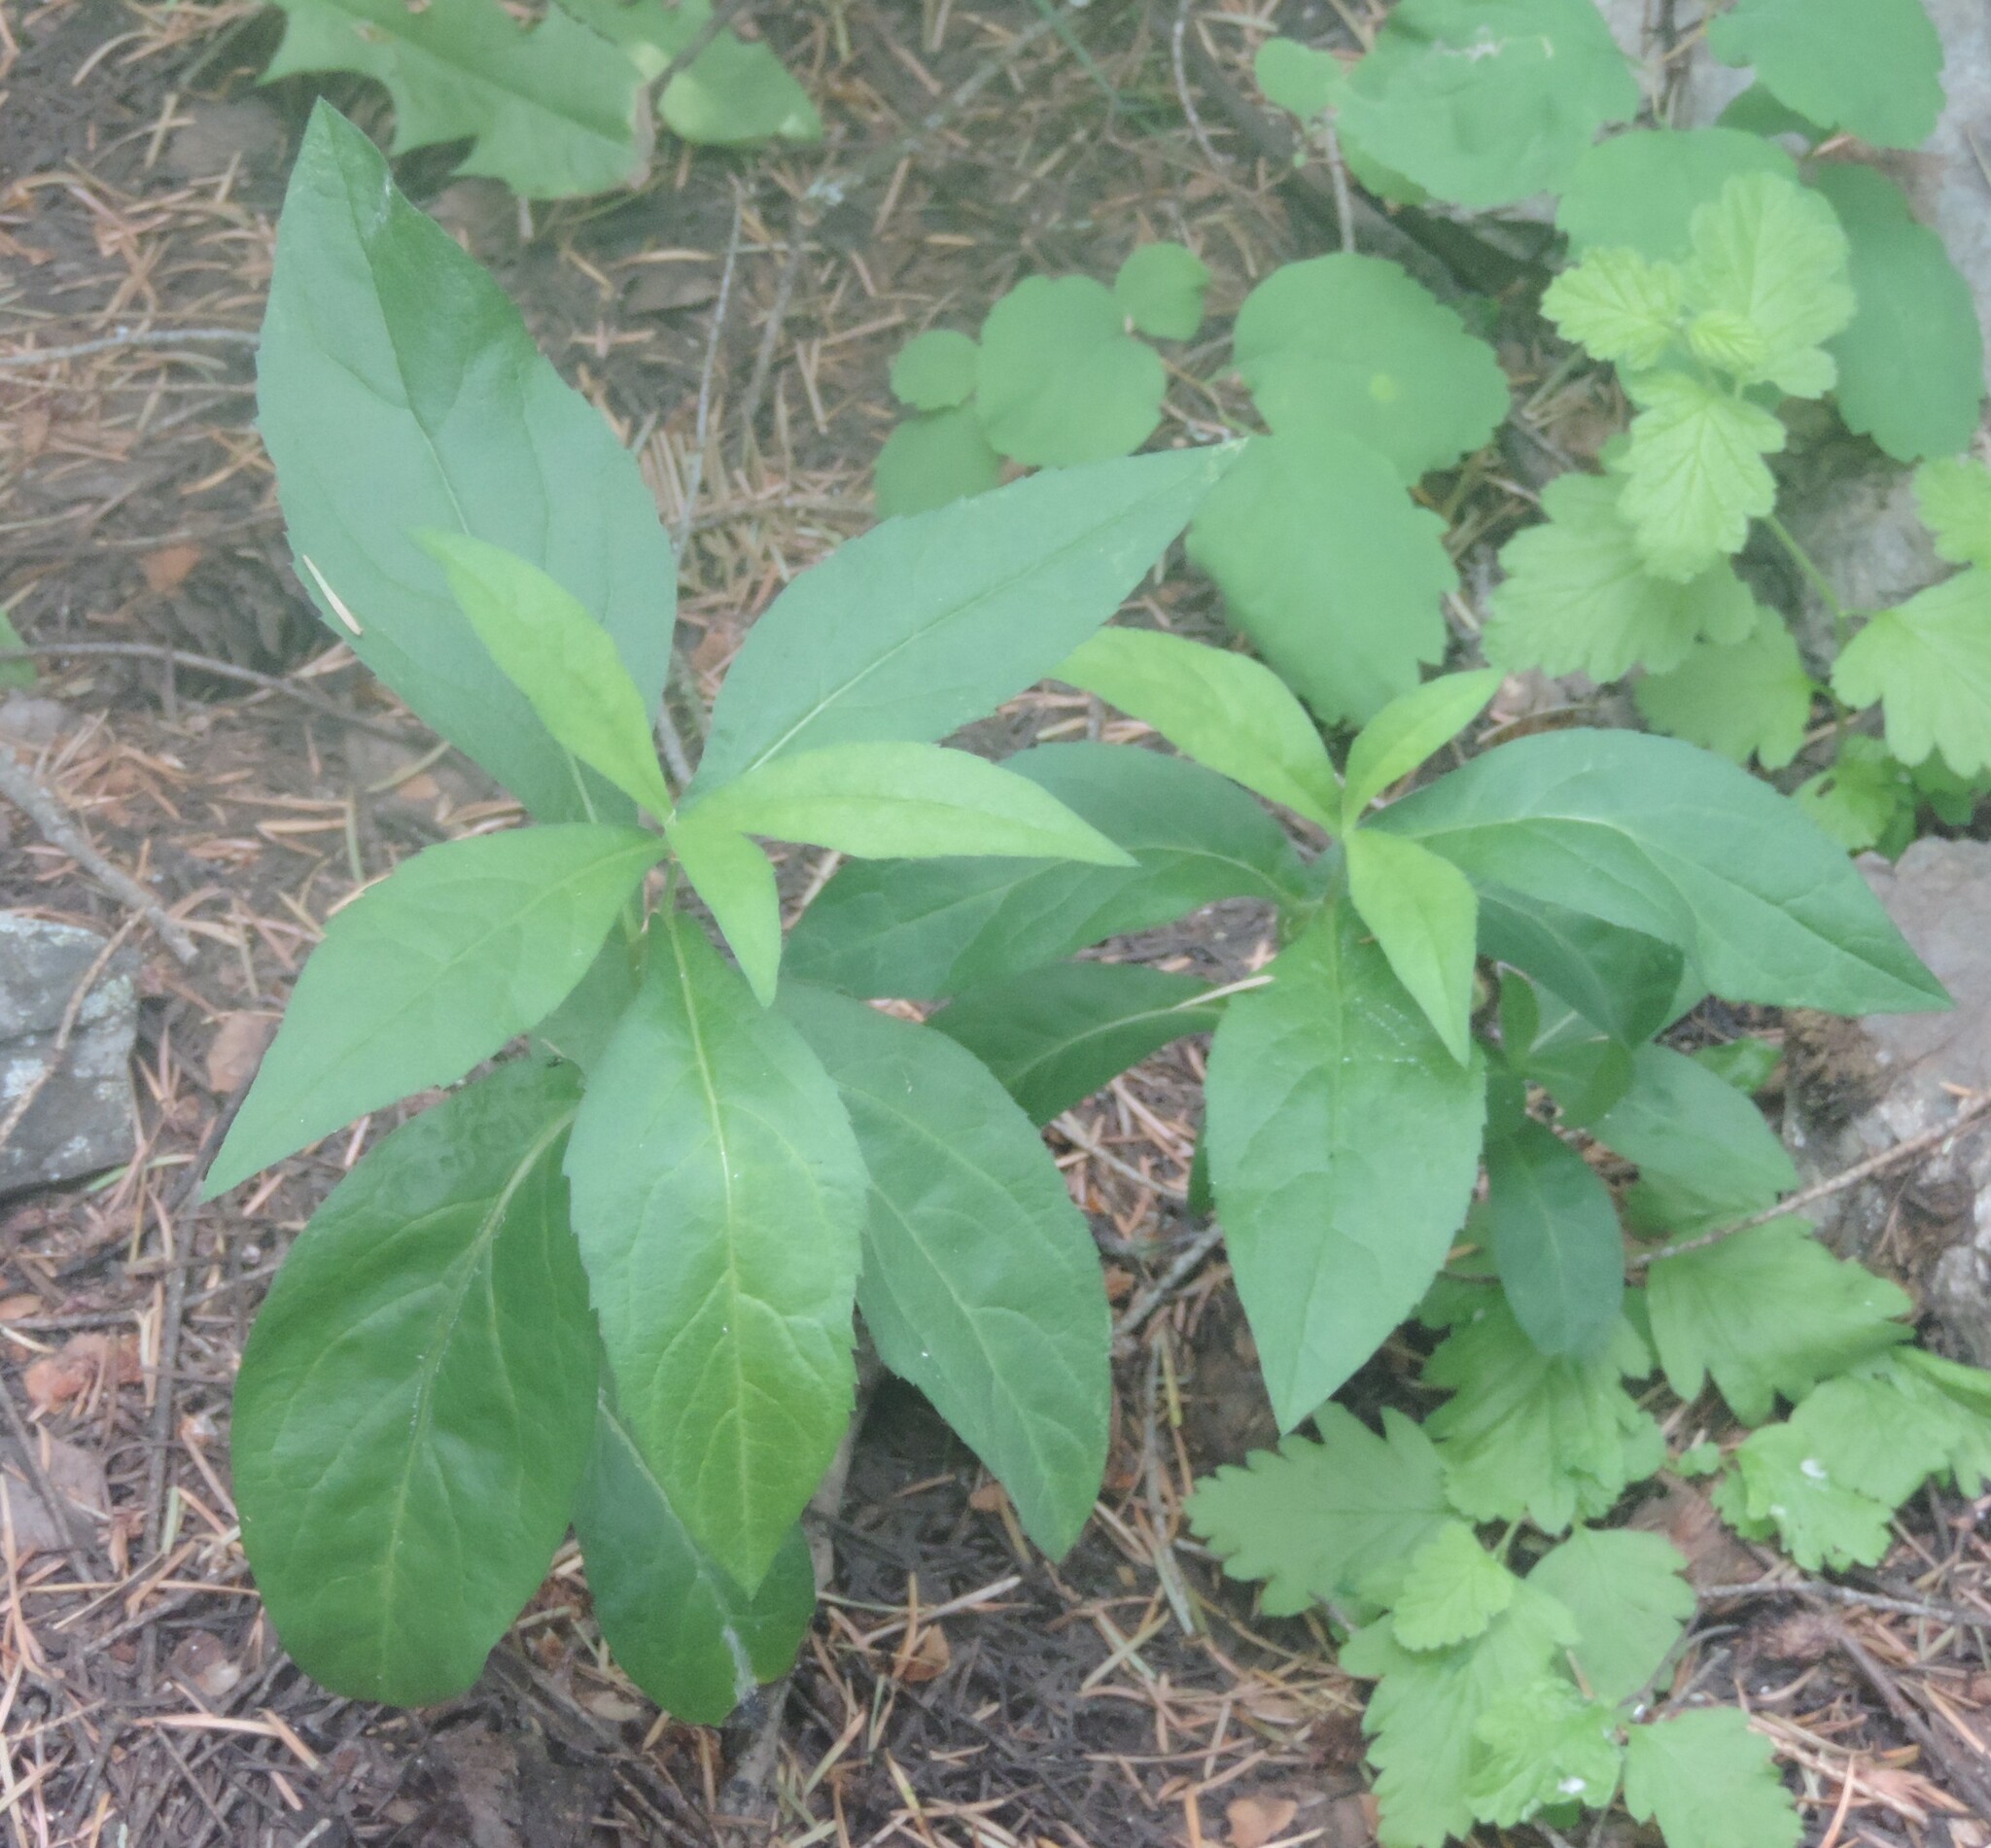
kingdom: Plantae
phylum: Tracheophyta
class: Magnoliopsida
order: Asterales
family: Asteraceae
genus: Eurybia
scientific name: Eurybia conspicua
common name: Showy aster
